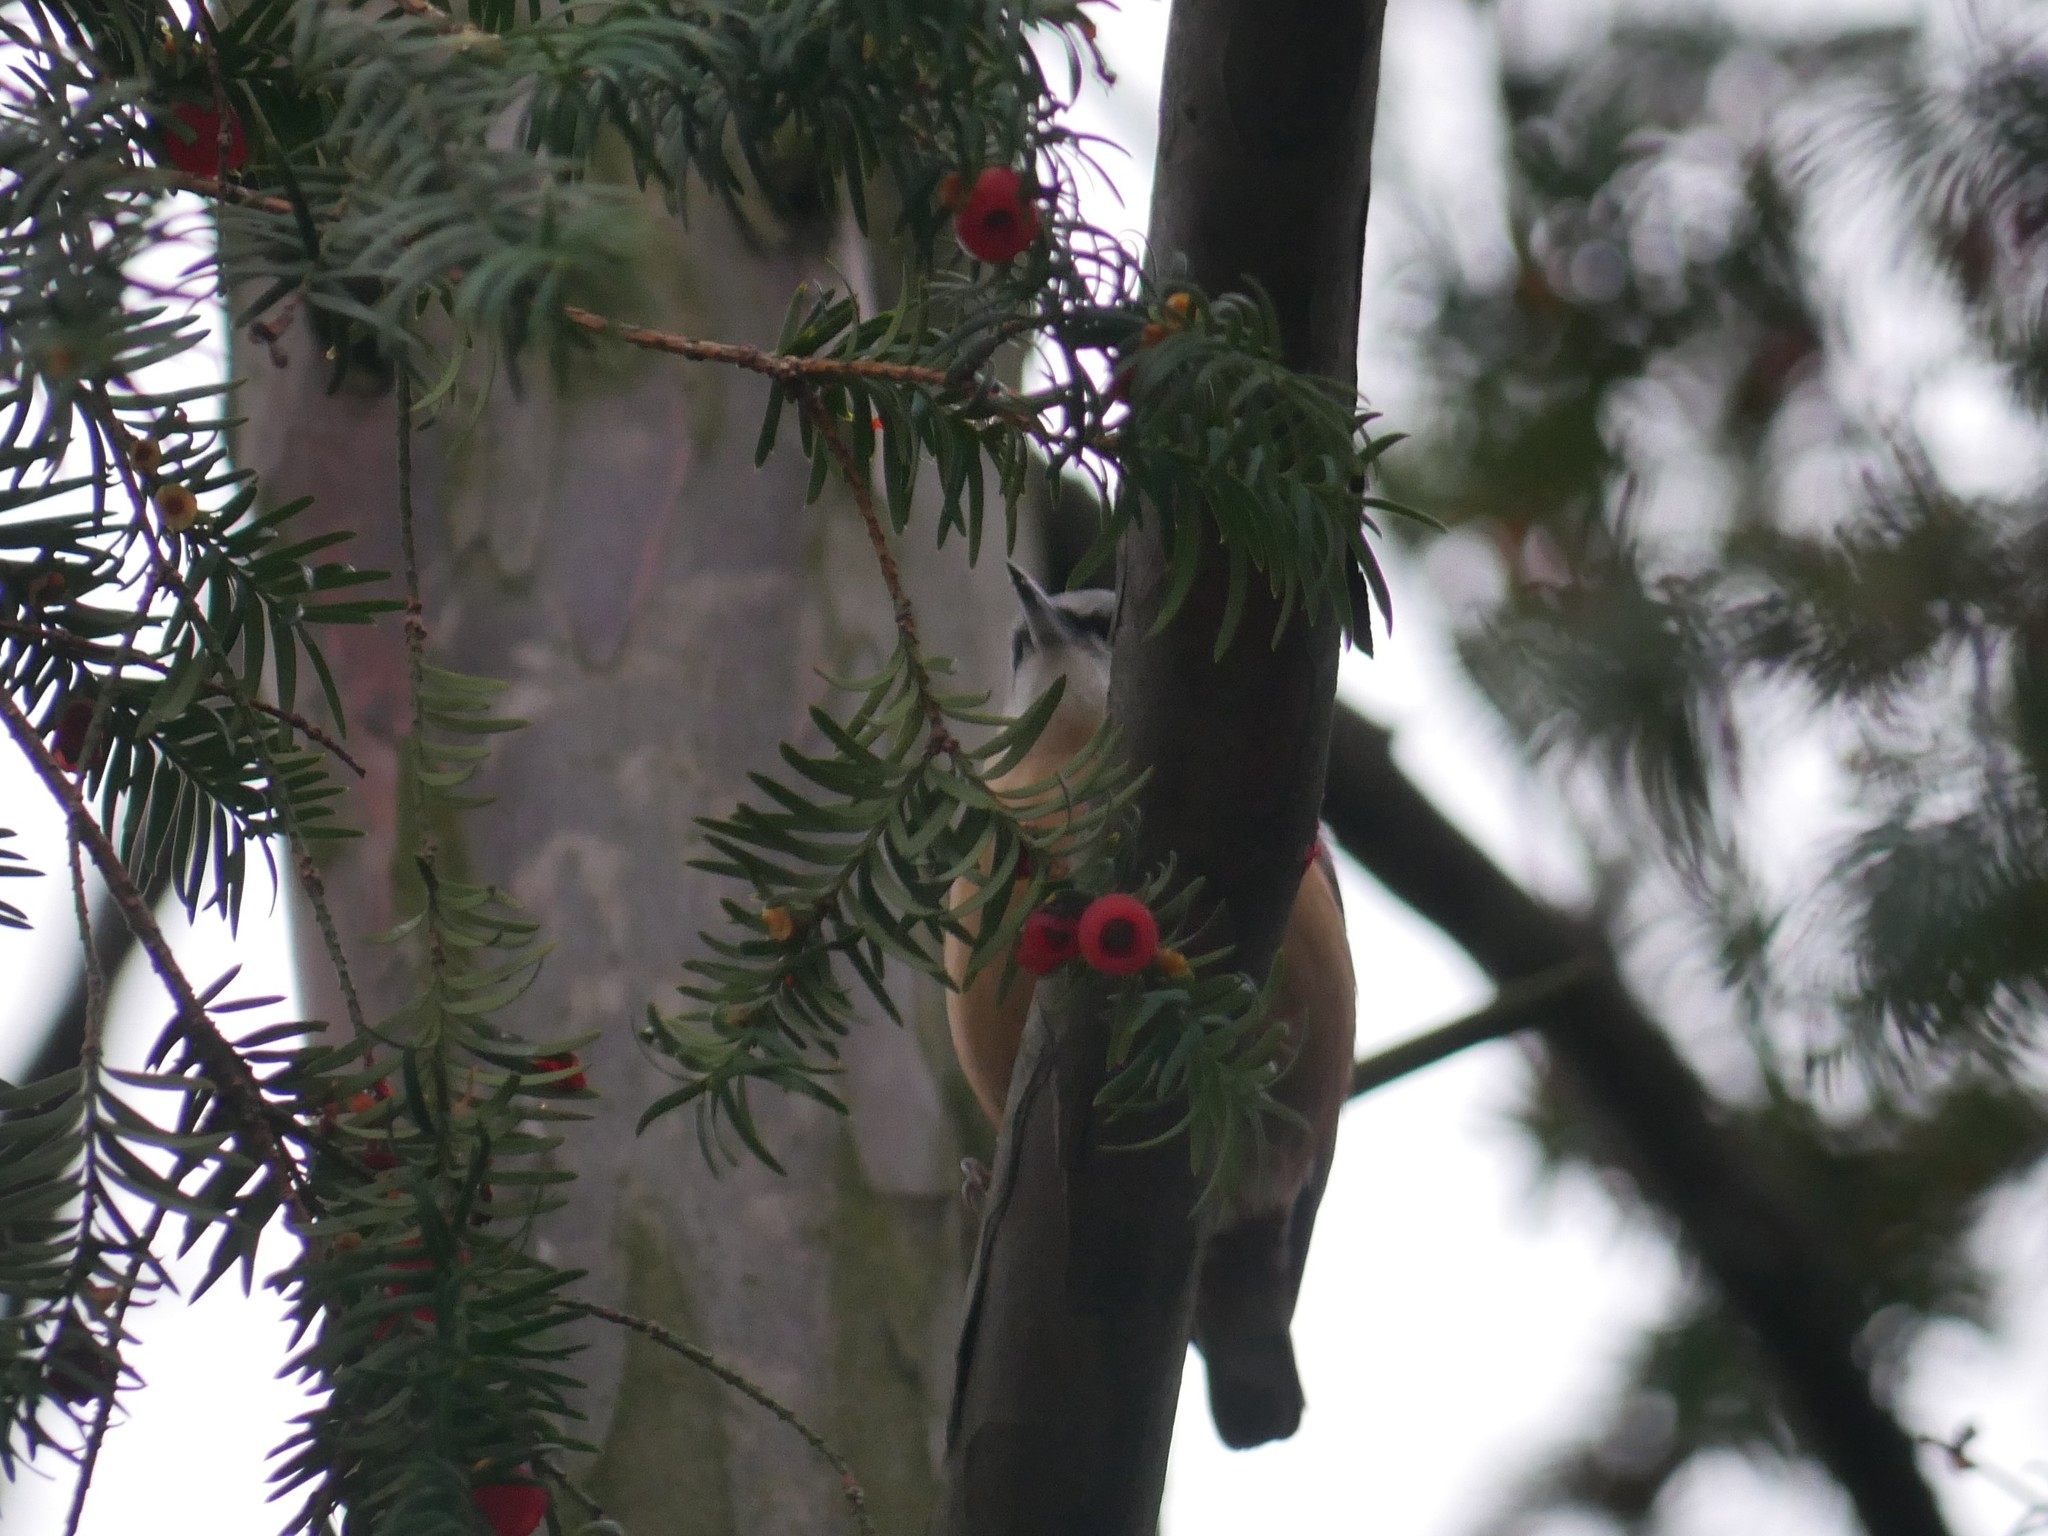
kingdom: Animalia
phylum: Chordata
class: Aves
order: Passeriformes
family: Sittidae
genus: Sitta
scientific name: Sitta europaea
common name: Eurasian nuthatch
